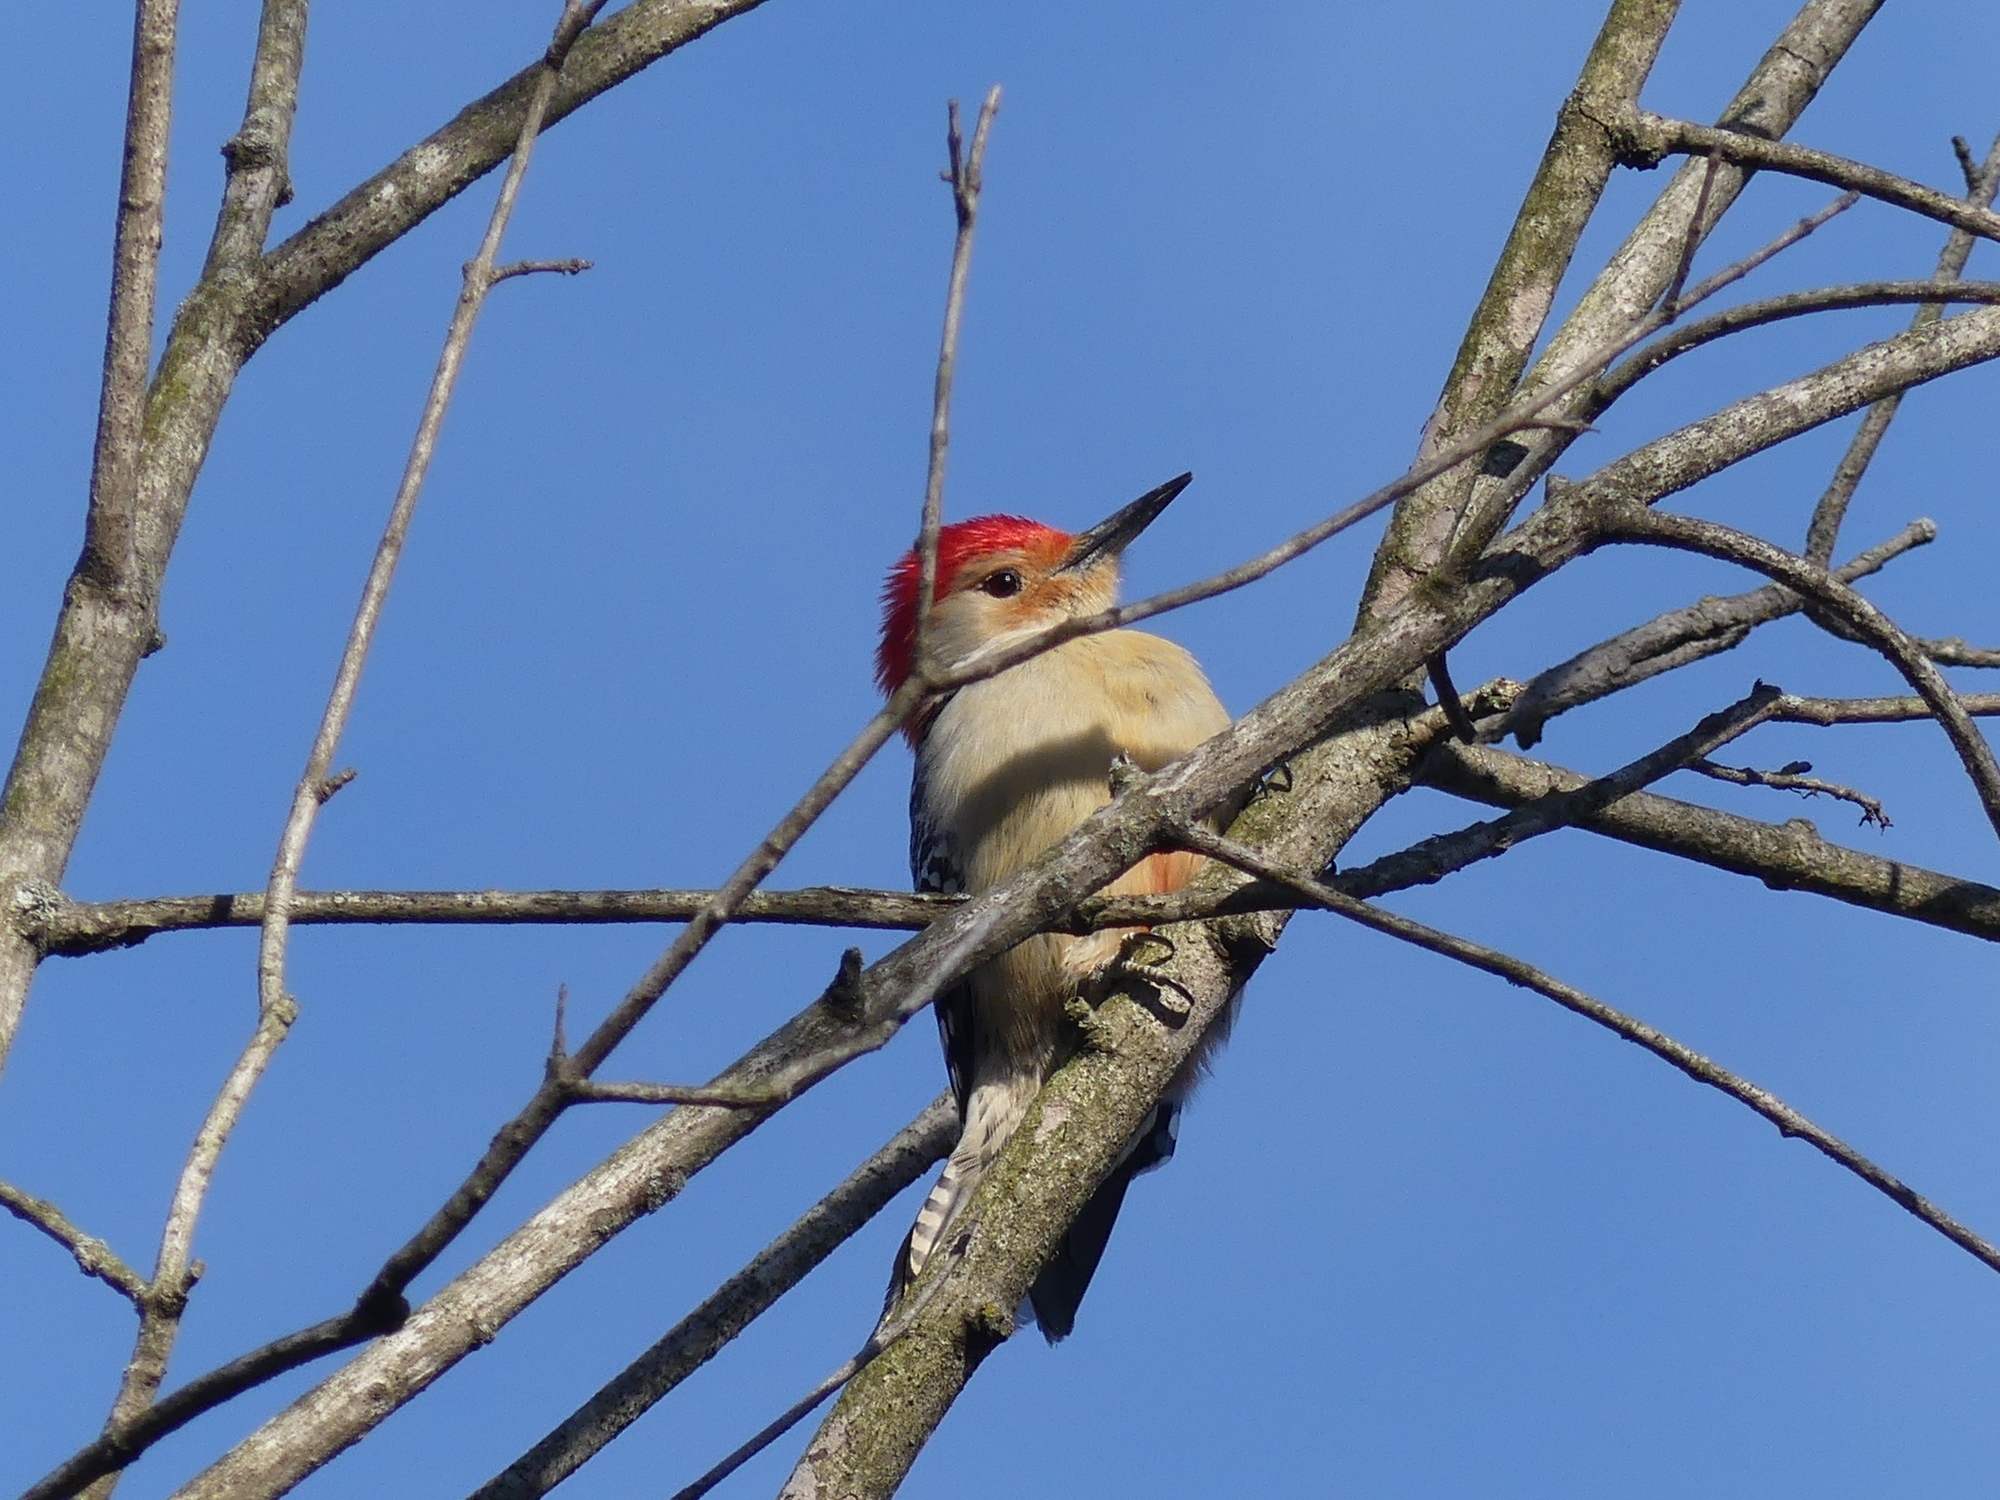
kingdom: Animalia
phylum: Chordata
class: Aves
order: Piciformes
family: Picidae
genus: Melanerpes
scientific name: Melanerpes carolinus
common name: Red-bellied woodpecker
